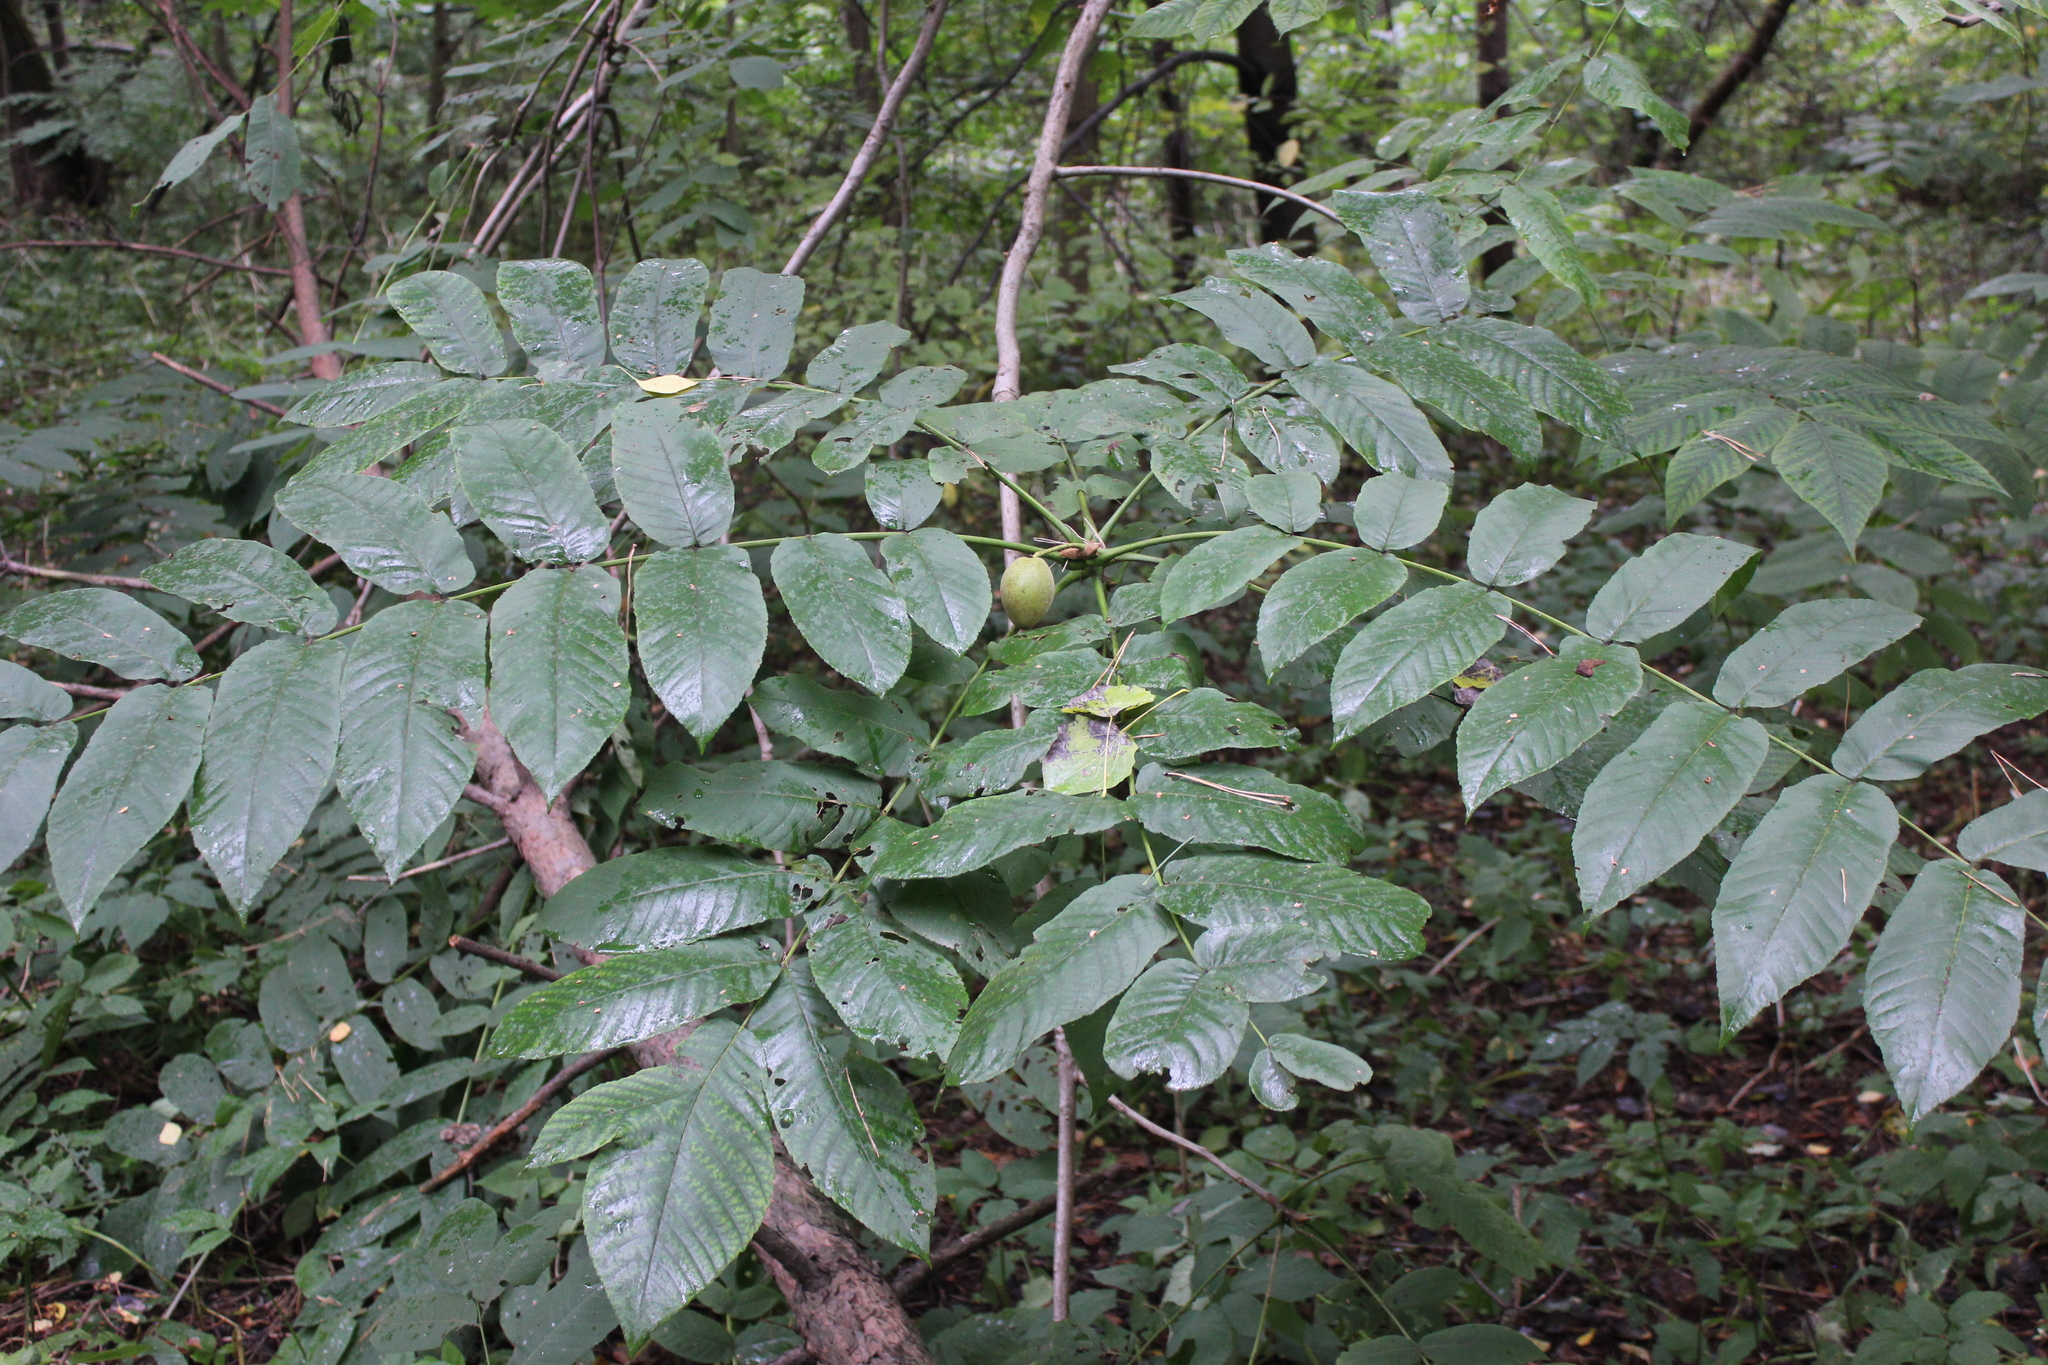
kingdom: Plantae
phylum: Tracheophyta
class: Magnoliopsida
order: Fagales
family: Juglandaceae
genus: Juglans
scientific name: Juglans mandshurica
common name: Manchurian walnut
